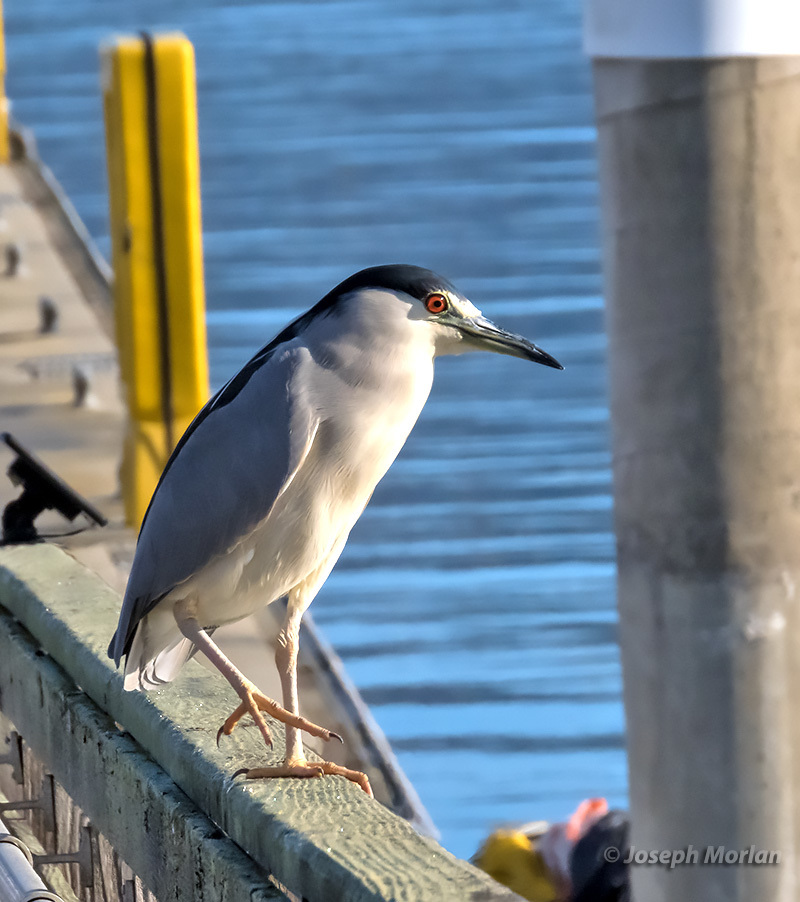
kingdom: Animalia
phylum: Chordata
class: Aves
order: Pelecaniformes
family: Ardeidae
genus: Nycticorax
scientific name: Nycticorax nycticorax
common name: Black-crowned night heron
